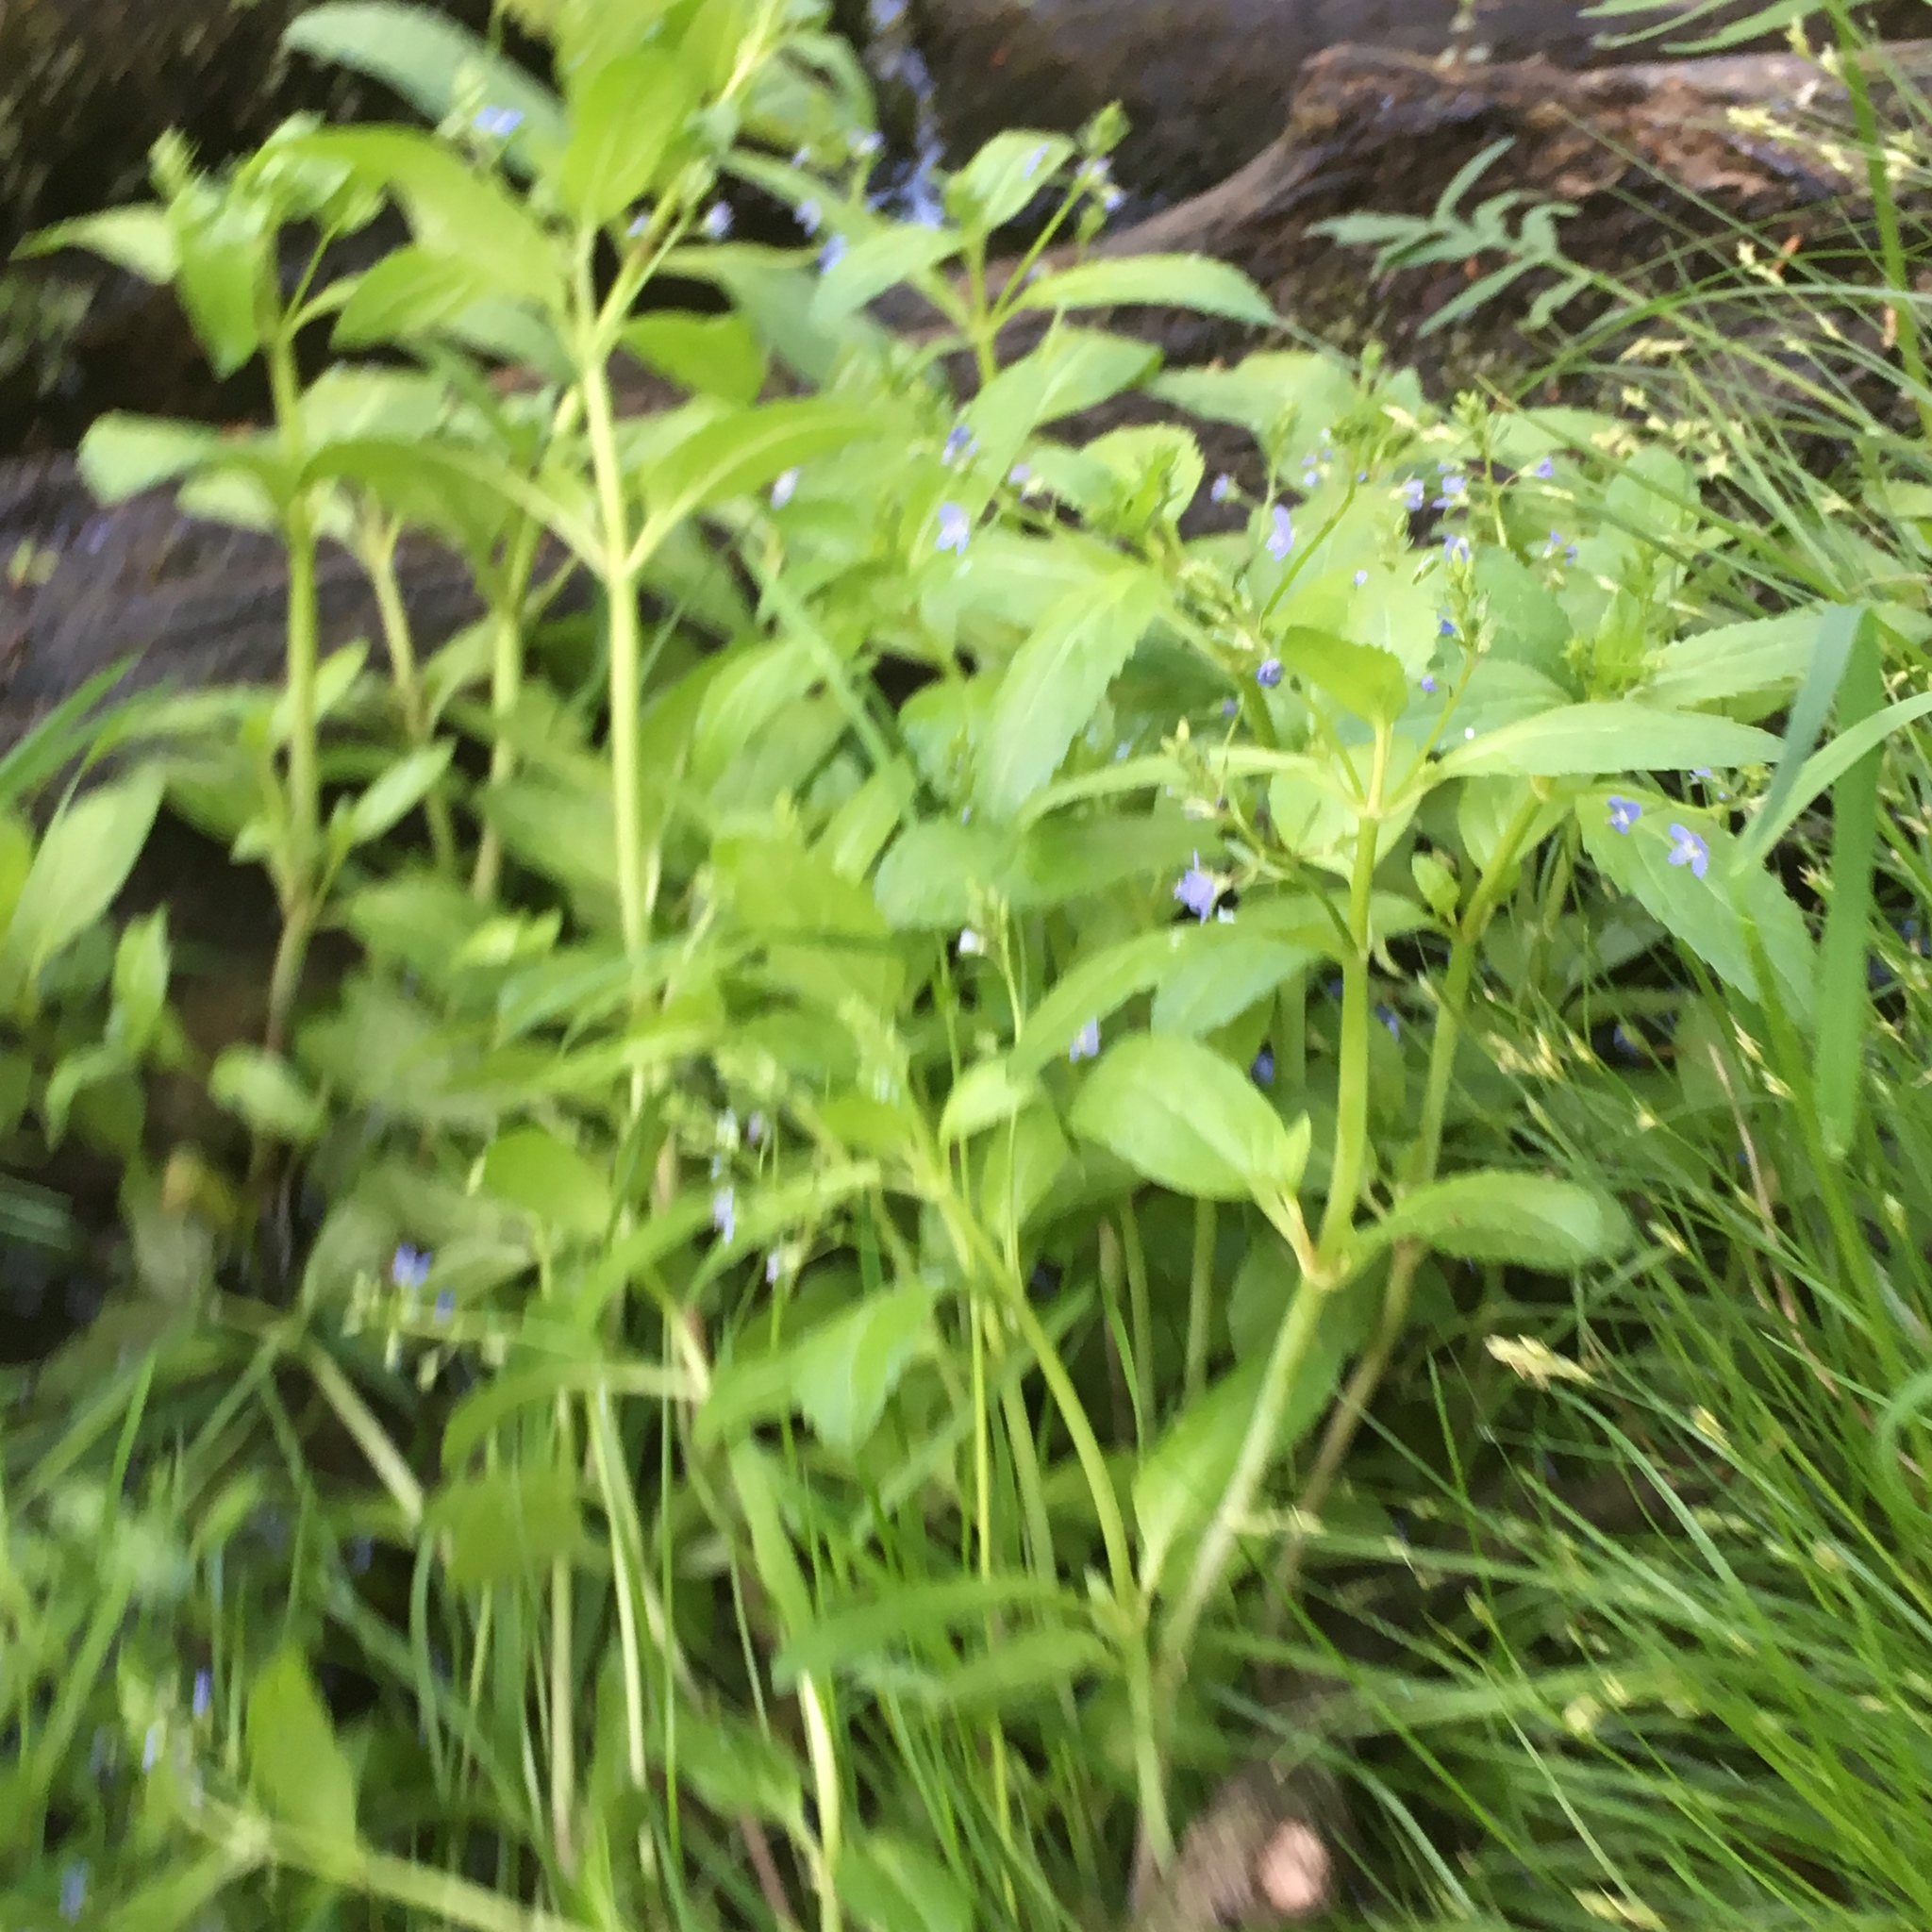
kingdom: Plantae
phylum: Tracheophyta
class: Magnoliopsida
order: Lamiales
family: Plantaginaceae
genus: Veronica
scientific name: Veronica beccabunga
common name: Brooklime
